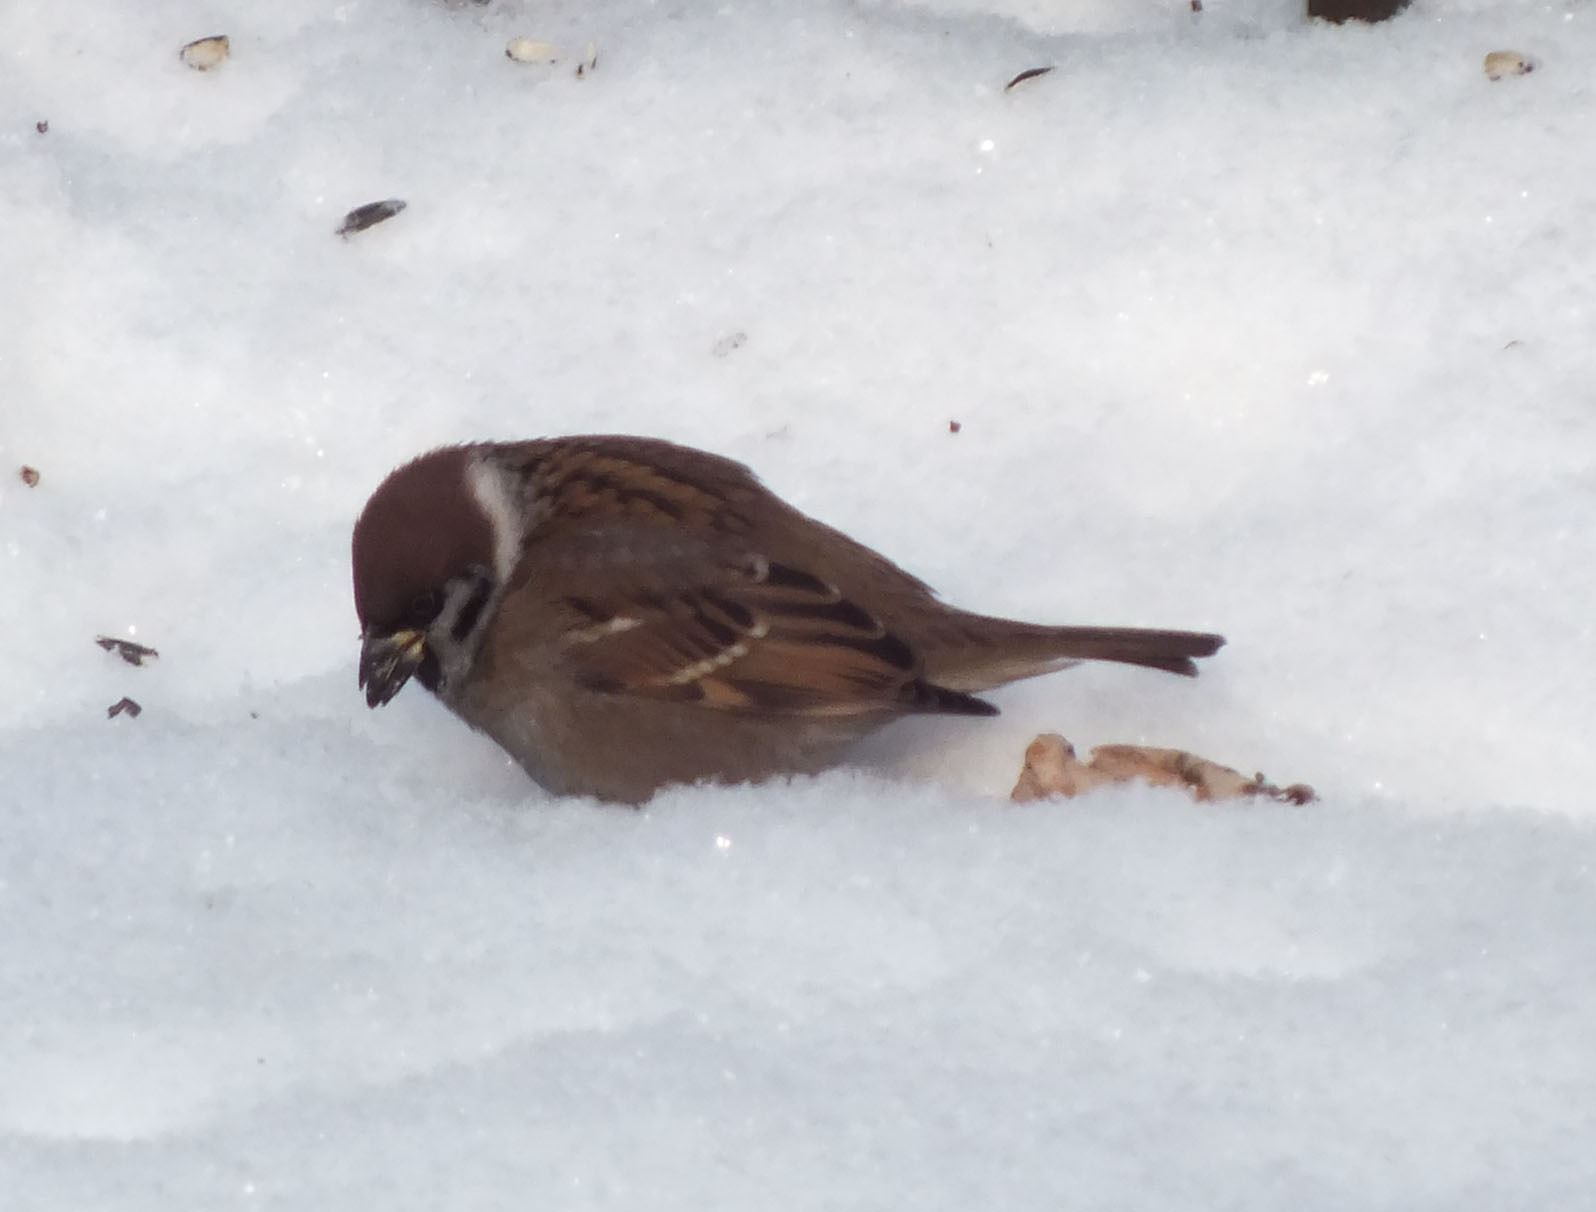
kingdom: Animalia
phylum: Chordata
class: Aves
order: Passeriformes
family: Passeridae
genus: Passer
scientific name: Passer montanus
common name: Eurasian tree sparrow
